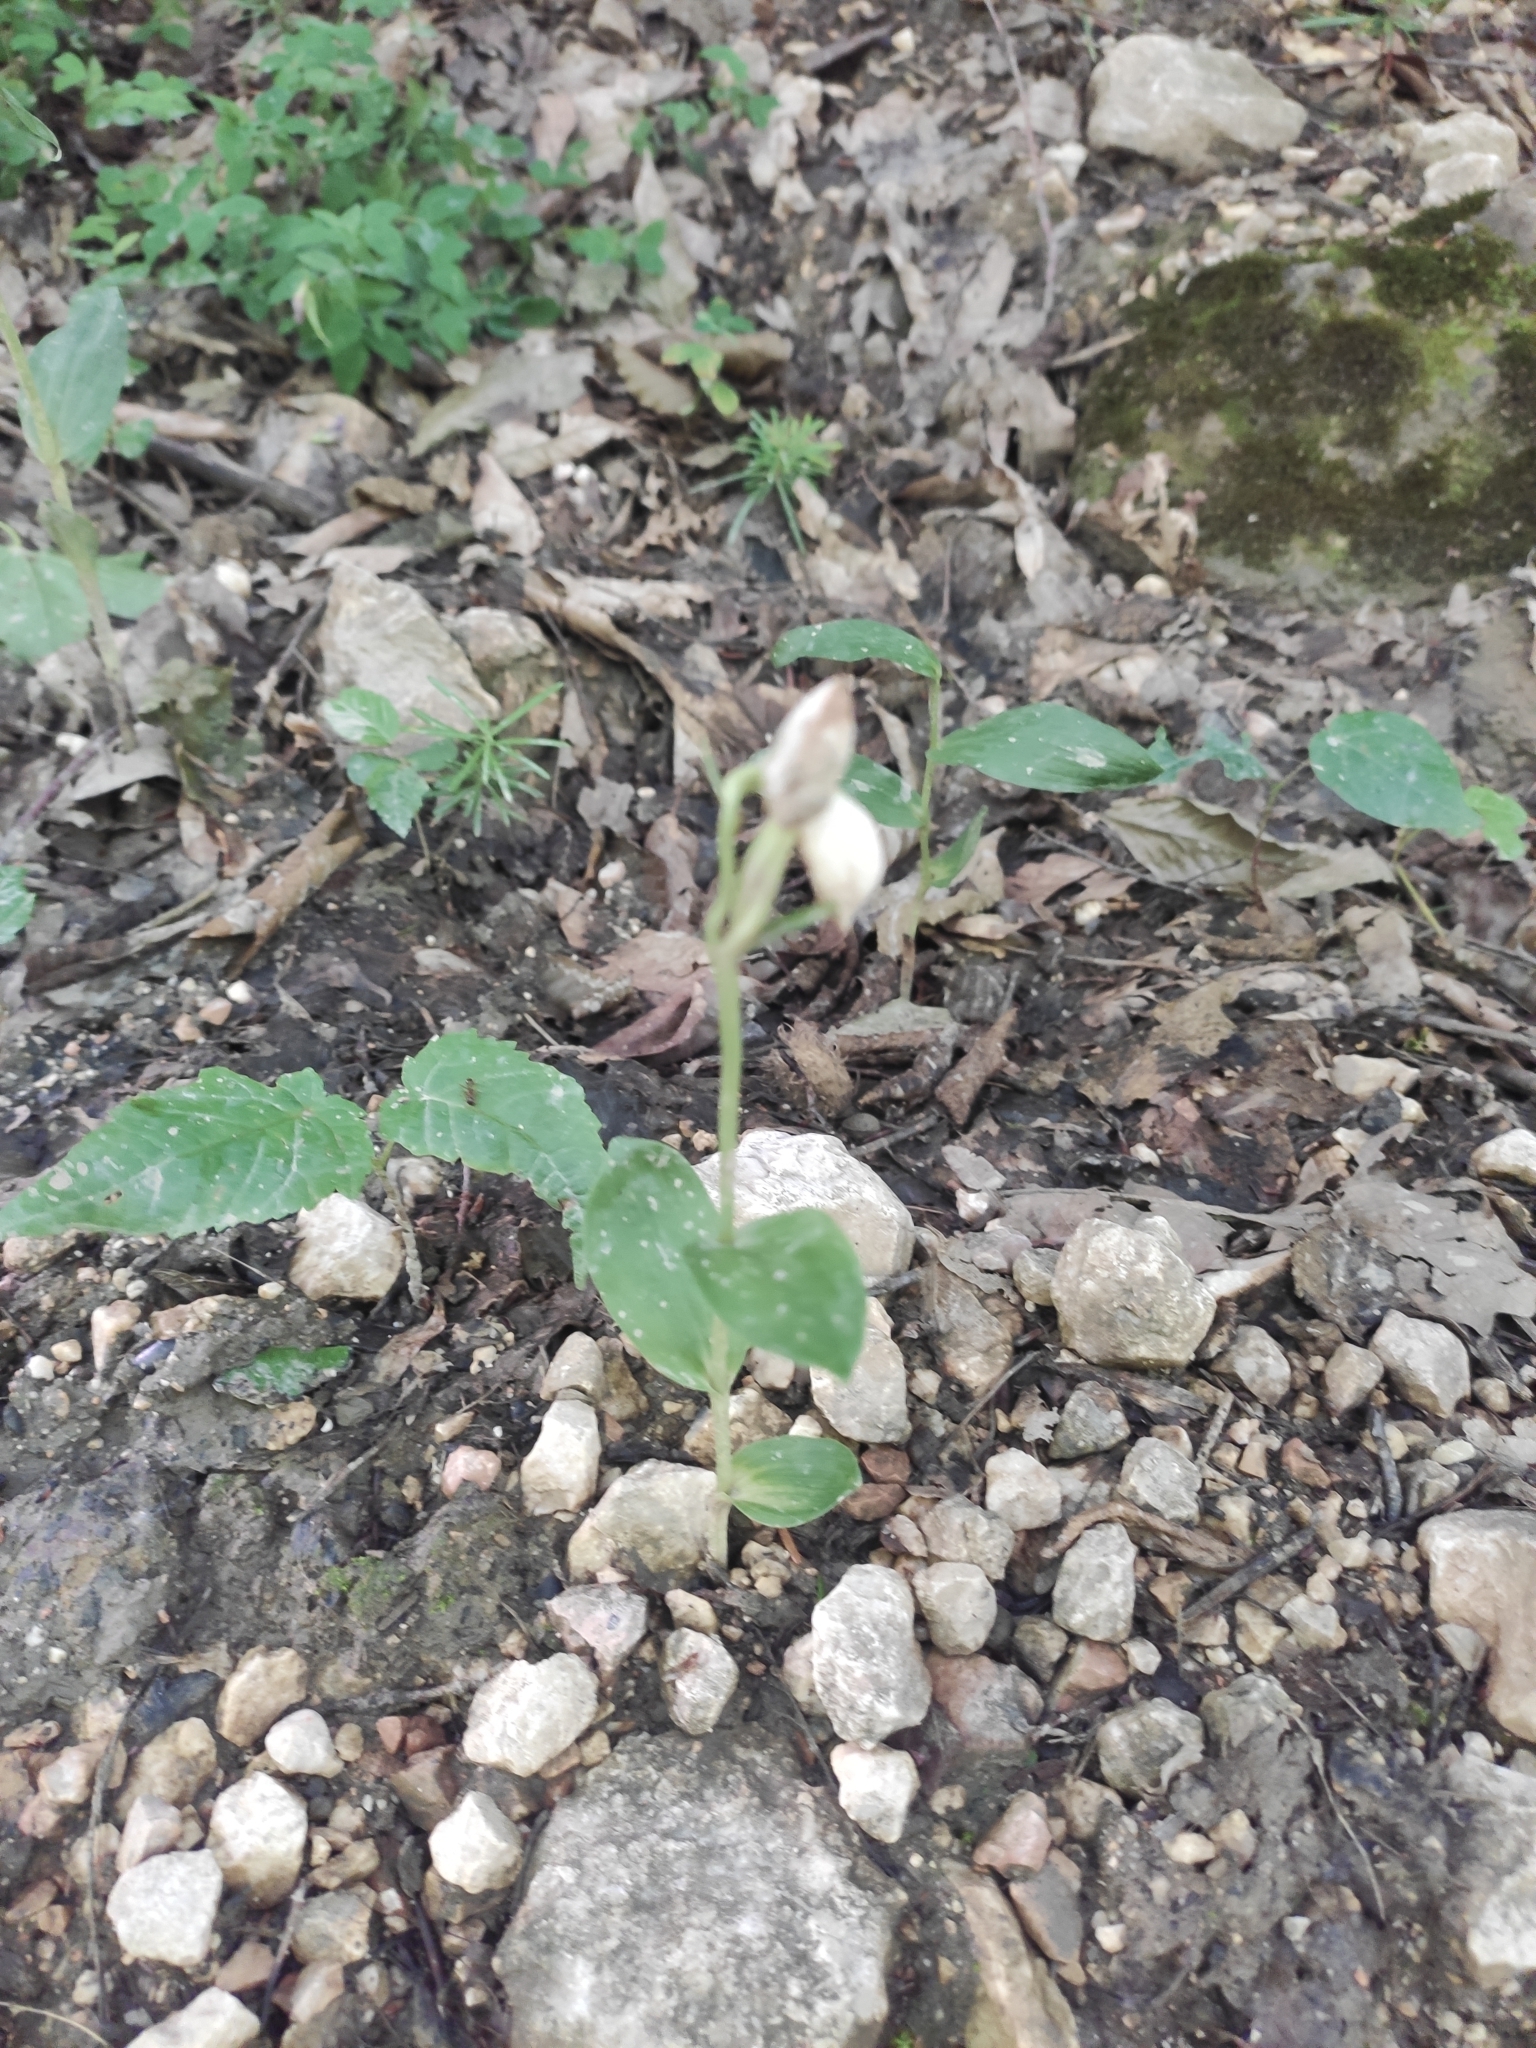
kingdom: Plantae
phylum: Tracheophyta
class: Liliopsida
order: Asparagales
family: Orchidaceae
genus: Cephalanthera
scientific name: Cephalanthera damasonium
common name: White helleborine
